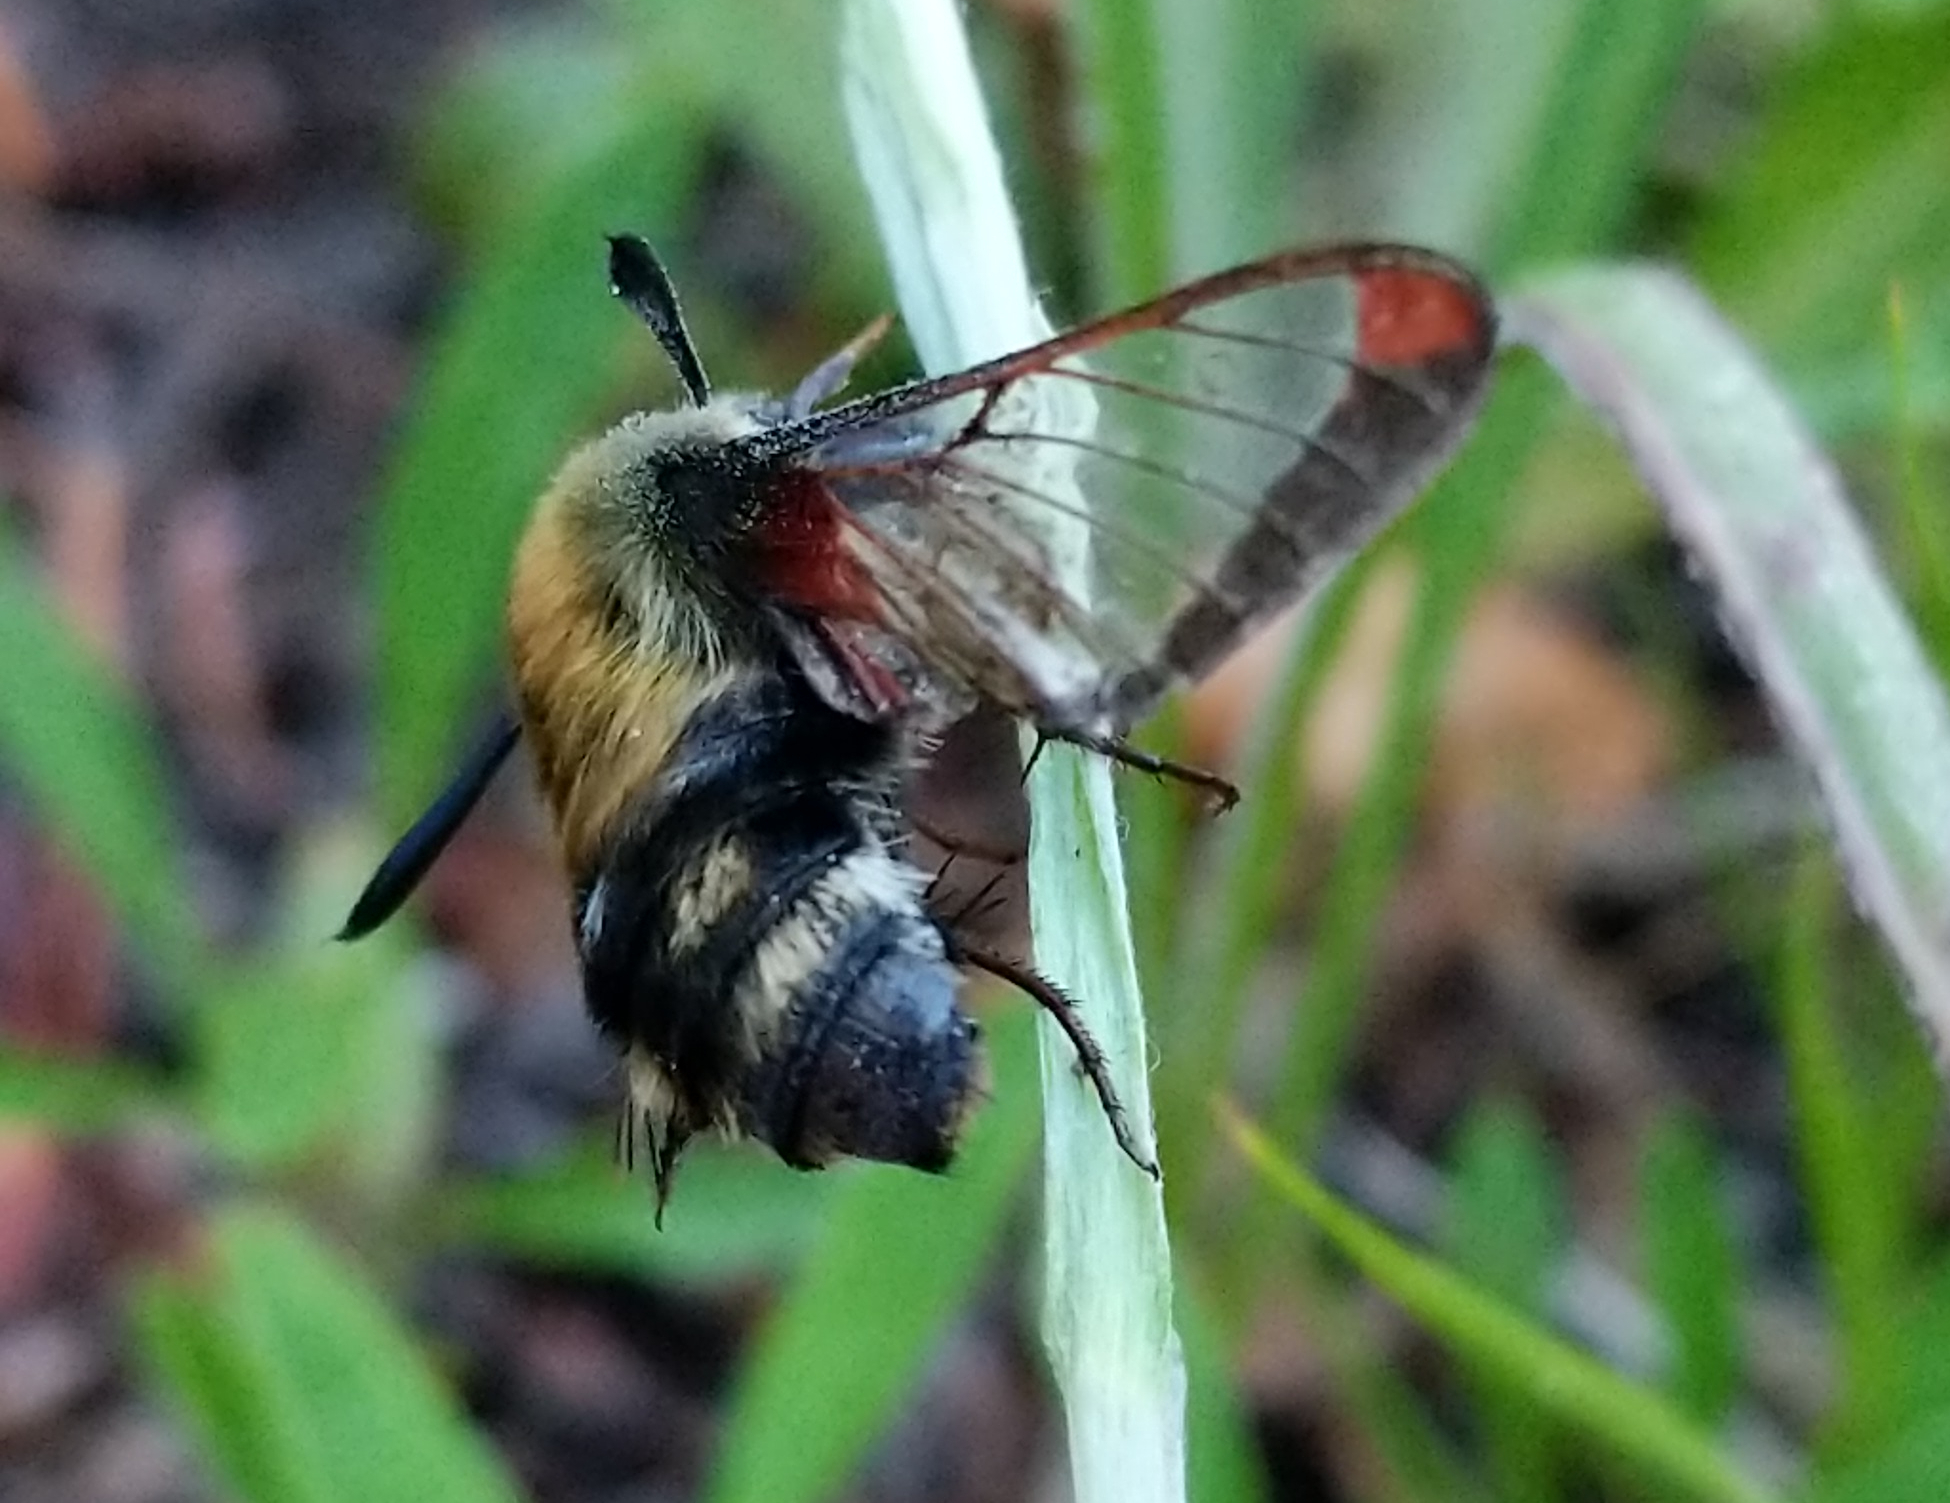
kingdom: Animalia
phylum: Arthropoda
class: Insecta
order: Lepidoptera
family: Sphingidae
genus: Hemaris
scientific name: Hemaris thetis
